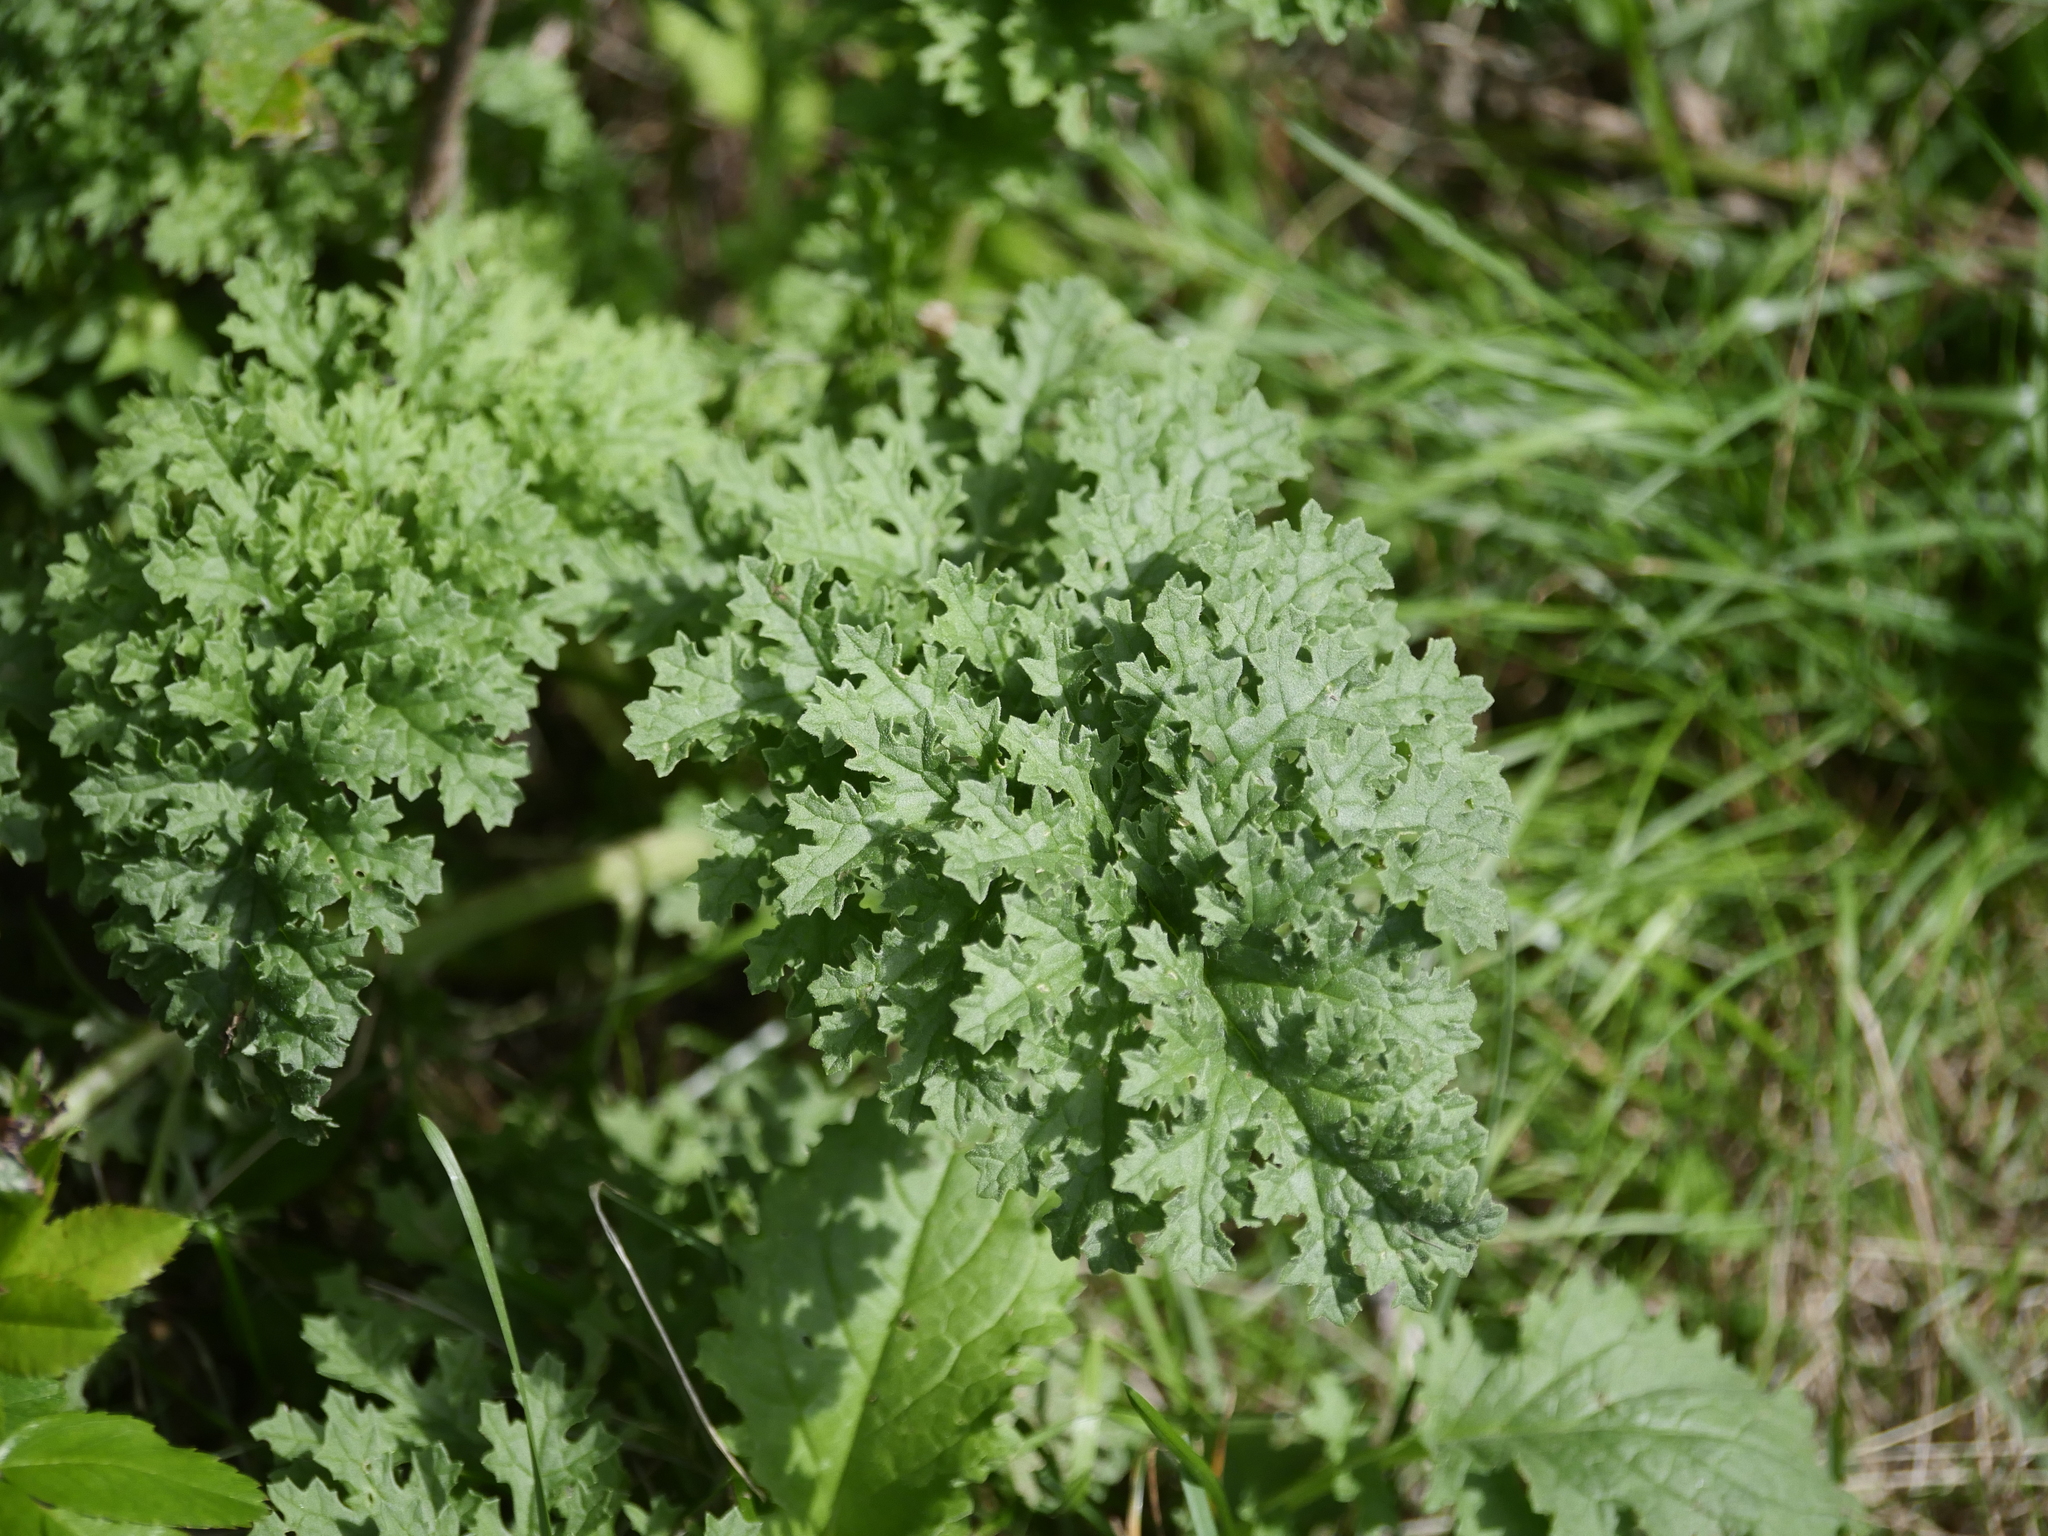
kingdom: Plantae
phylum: Tracheophyta
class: Magnoliopsida
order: Asterales
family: Asteraceae
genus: Jacobaea
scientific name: Jacobaea vulgaris
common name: Stinking willie
